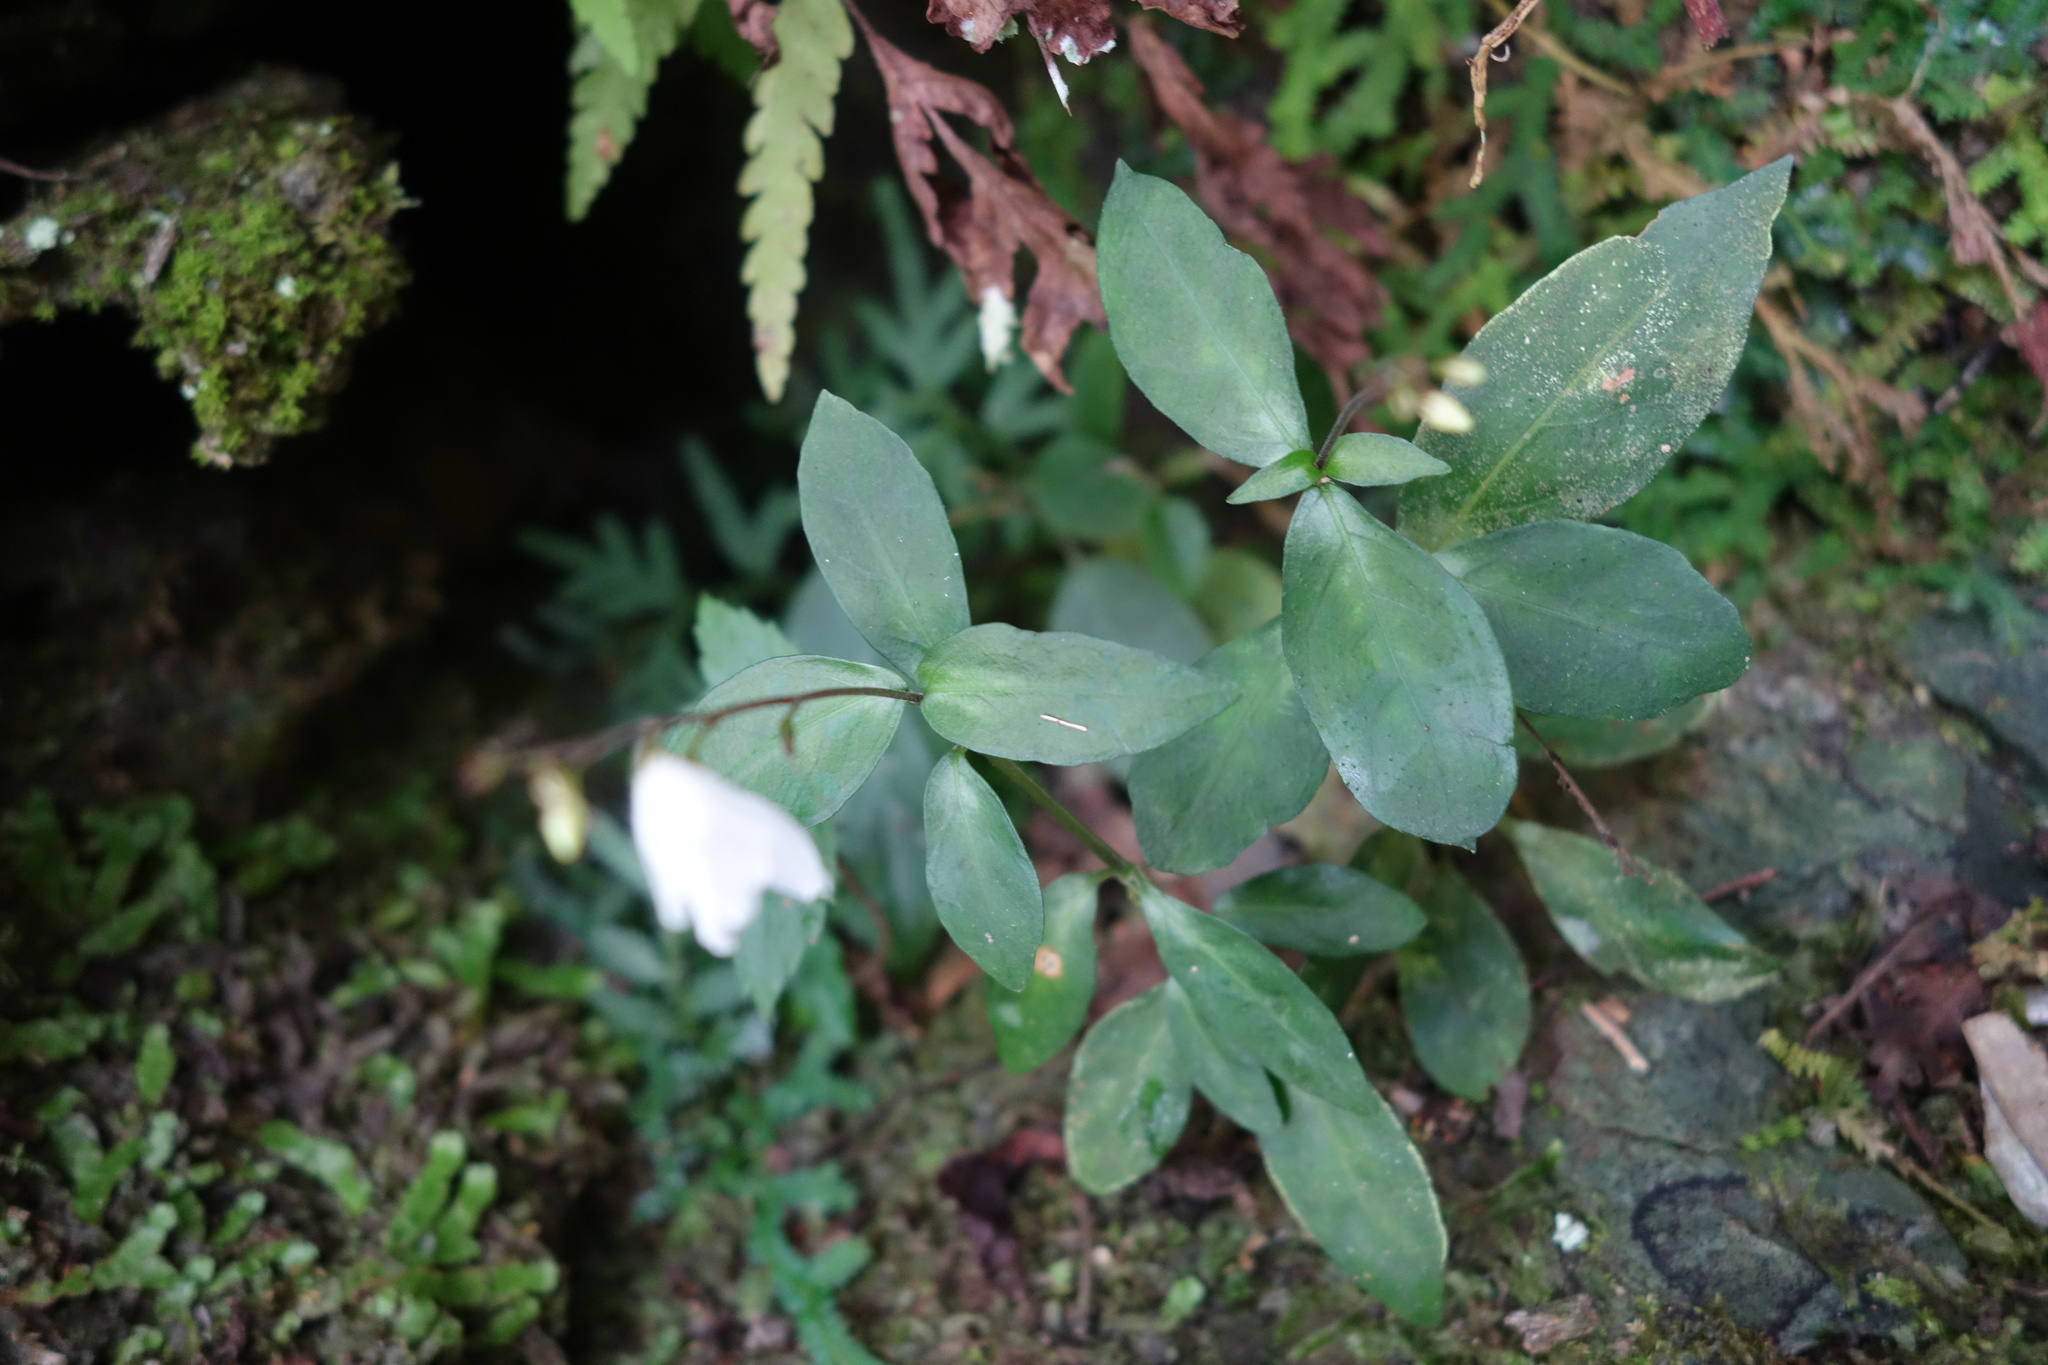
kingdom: Plantae
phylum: Tracheophyta
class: Magnoliopsida
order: Lamiales
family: Acanthaceae
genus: Codonacanthus
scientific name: Codonacanthus pauciflorus
